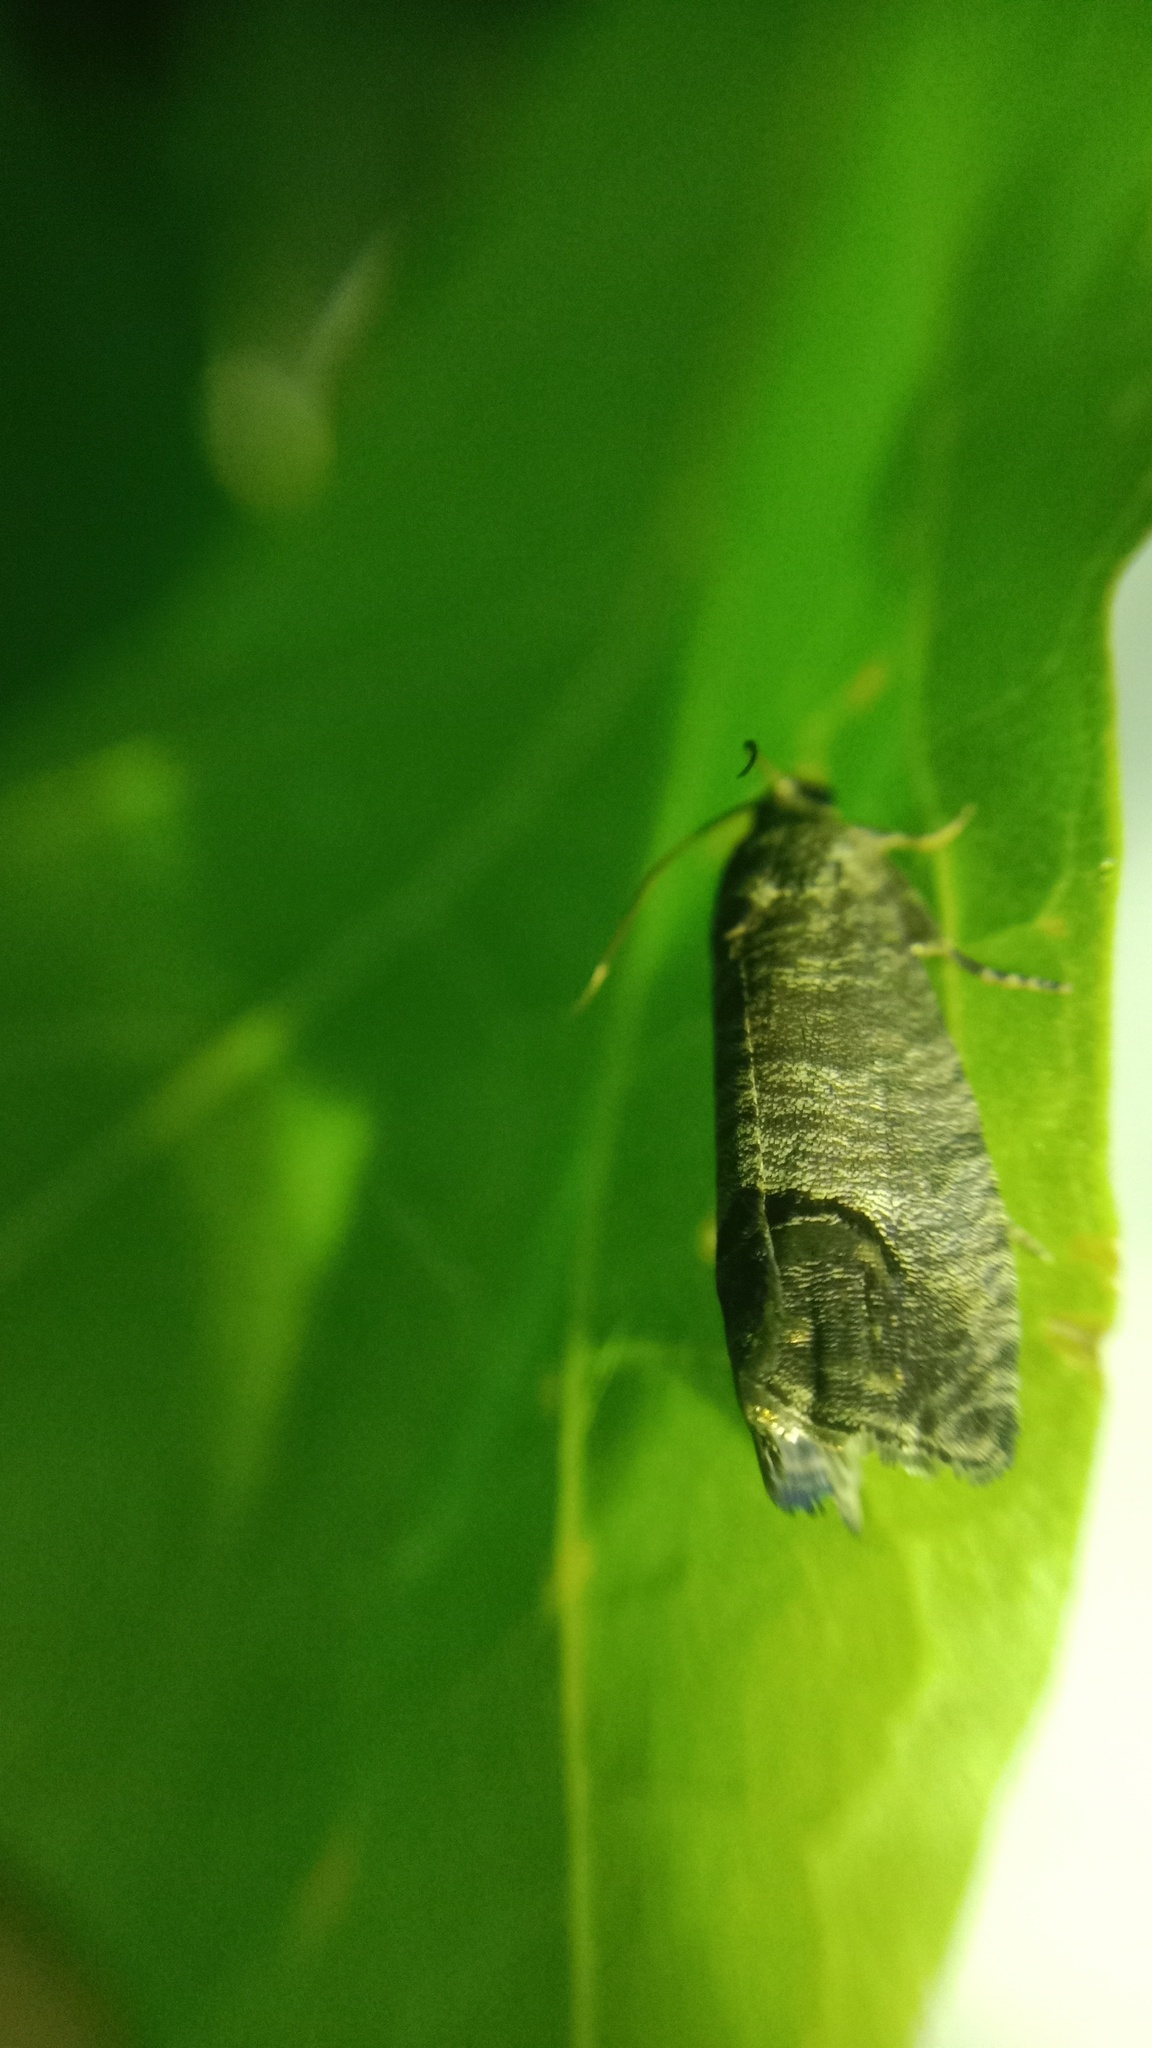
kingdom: Animalia
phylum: Arthropoda
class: Insecta
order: Lepidoptera
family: Tortricidae
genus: Cydia
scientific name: Cydia pomonella
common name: Codling moth
